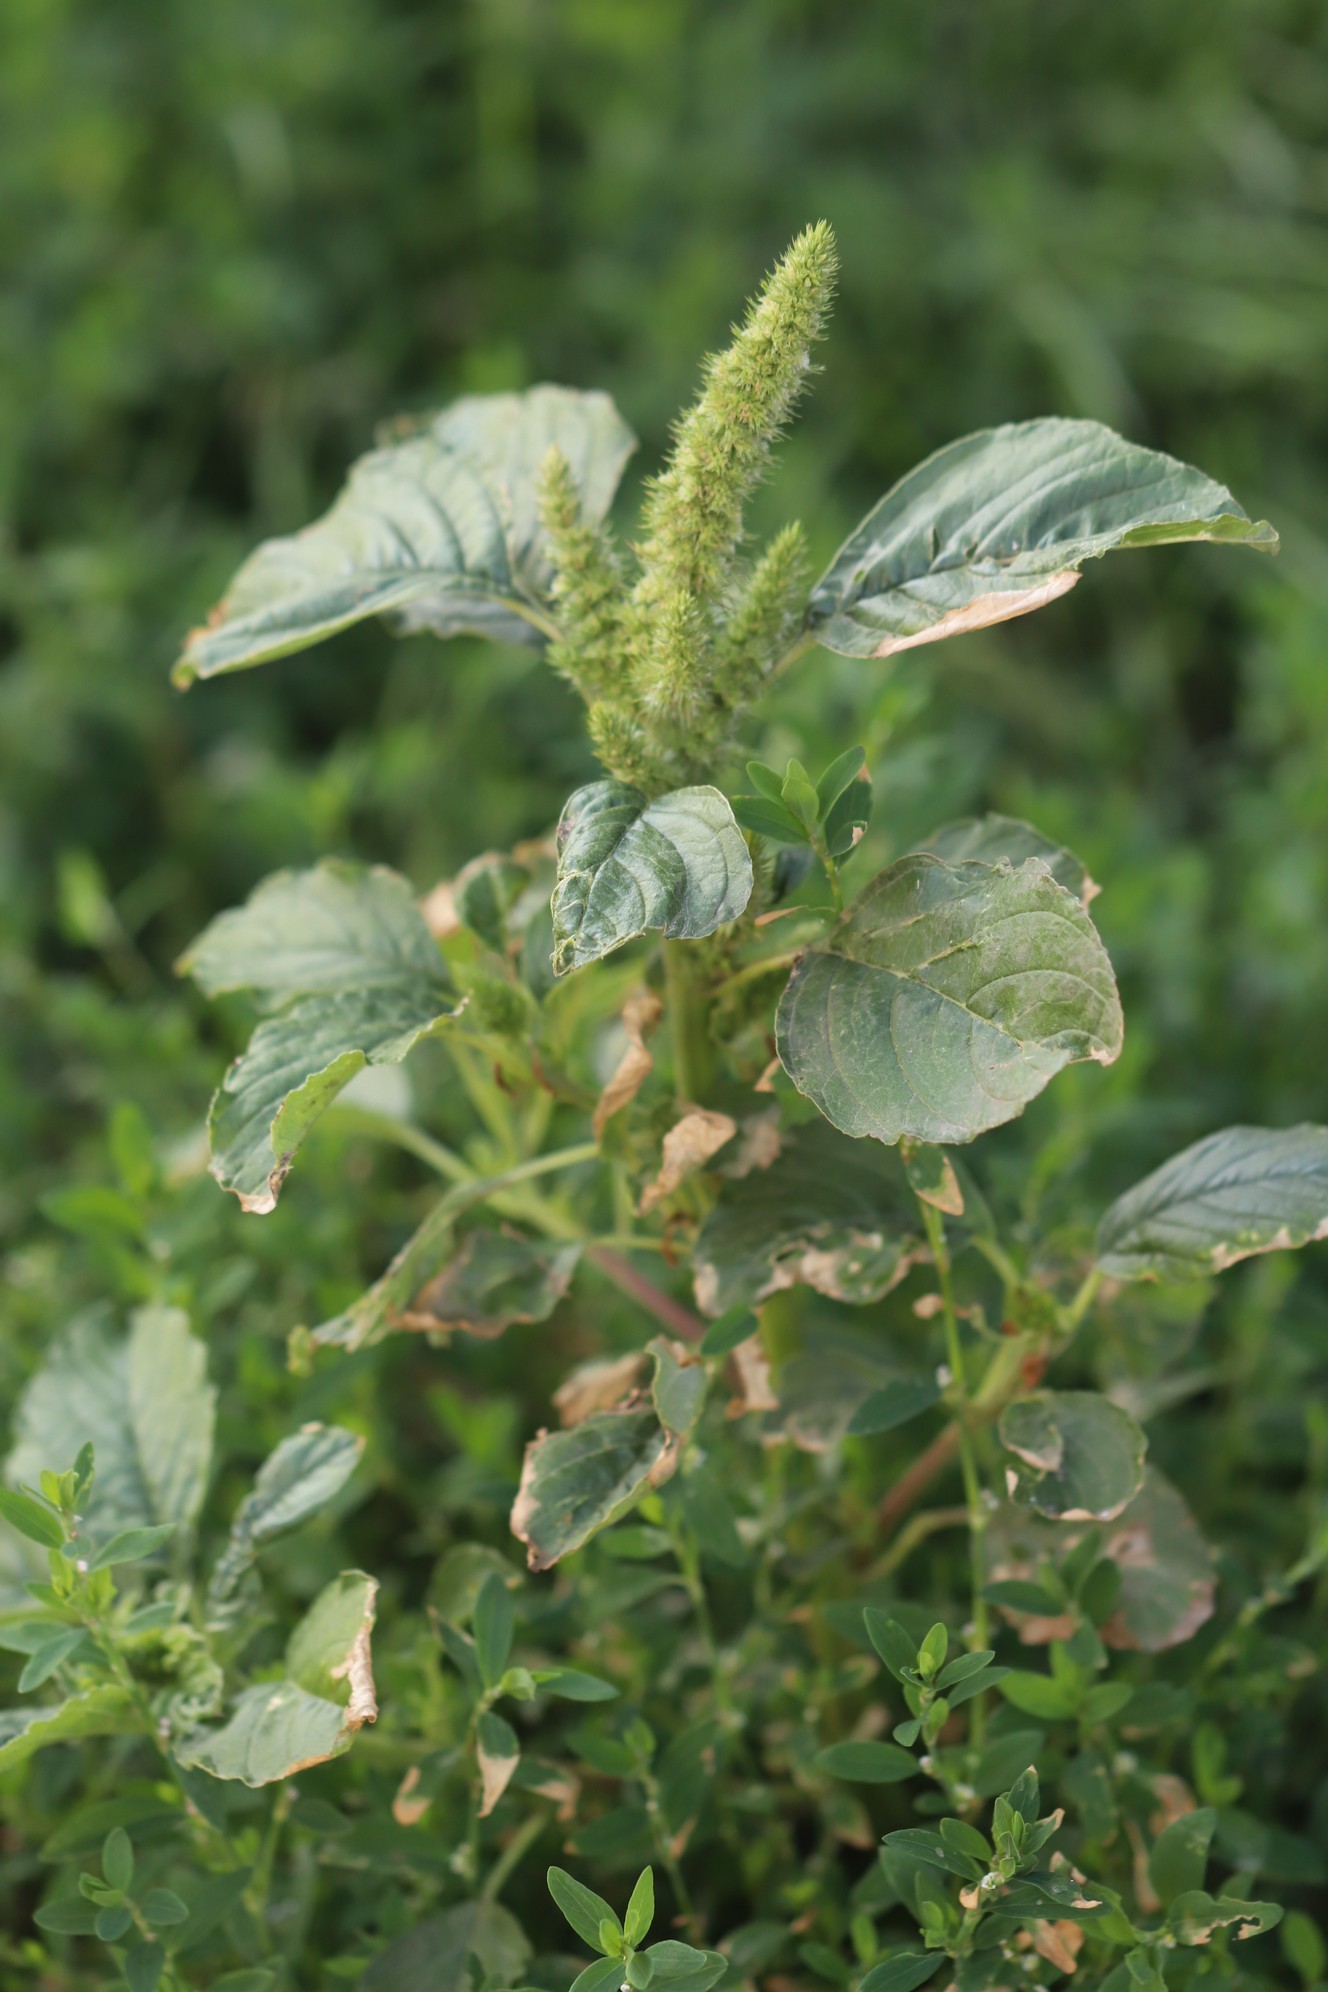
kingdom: Plantae
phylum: Tracheophyta
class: Magnoliopsida
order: Caryophyllales
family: Amaranthaceae
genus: Amaranthus
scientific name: Amaranthus retroflexus
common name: Redroot amaranth
